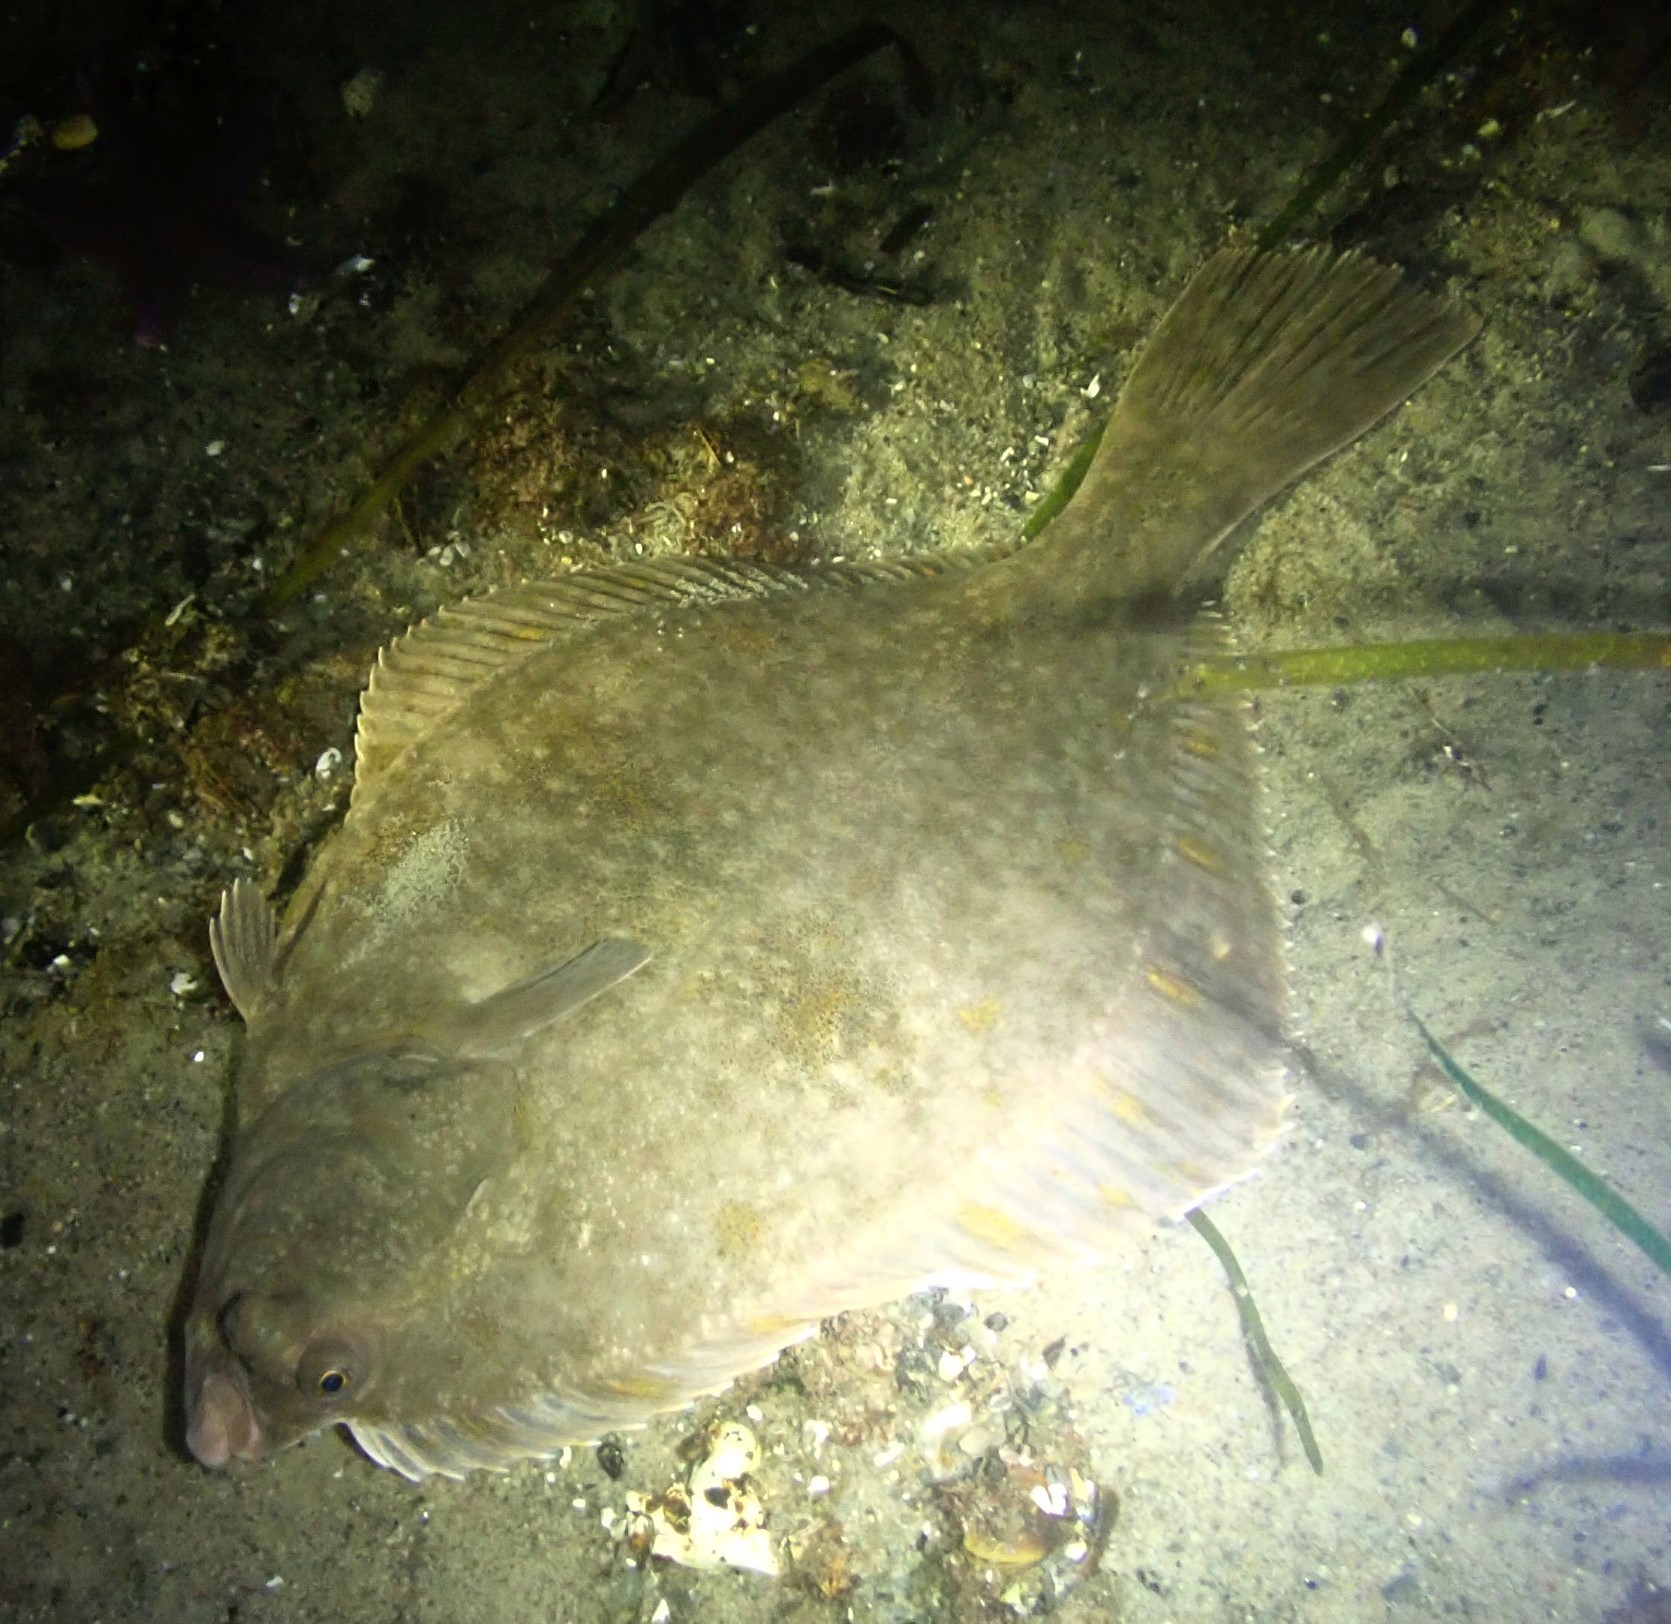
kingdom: Animalia
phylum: Chordata
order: Pleuronectiformes
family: Pleuronectidae
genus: Platichthys
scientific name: Platichthys flesus
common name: European flounder
